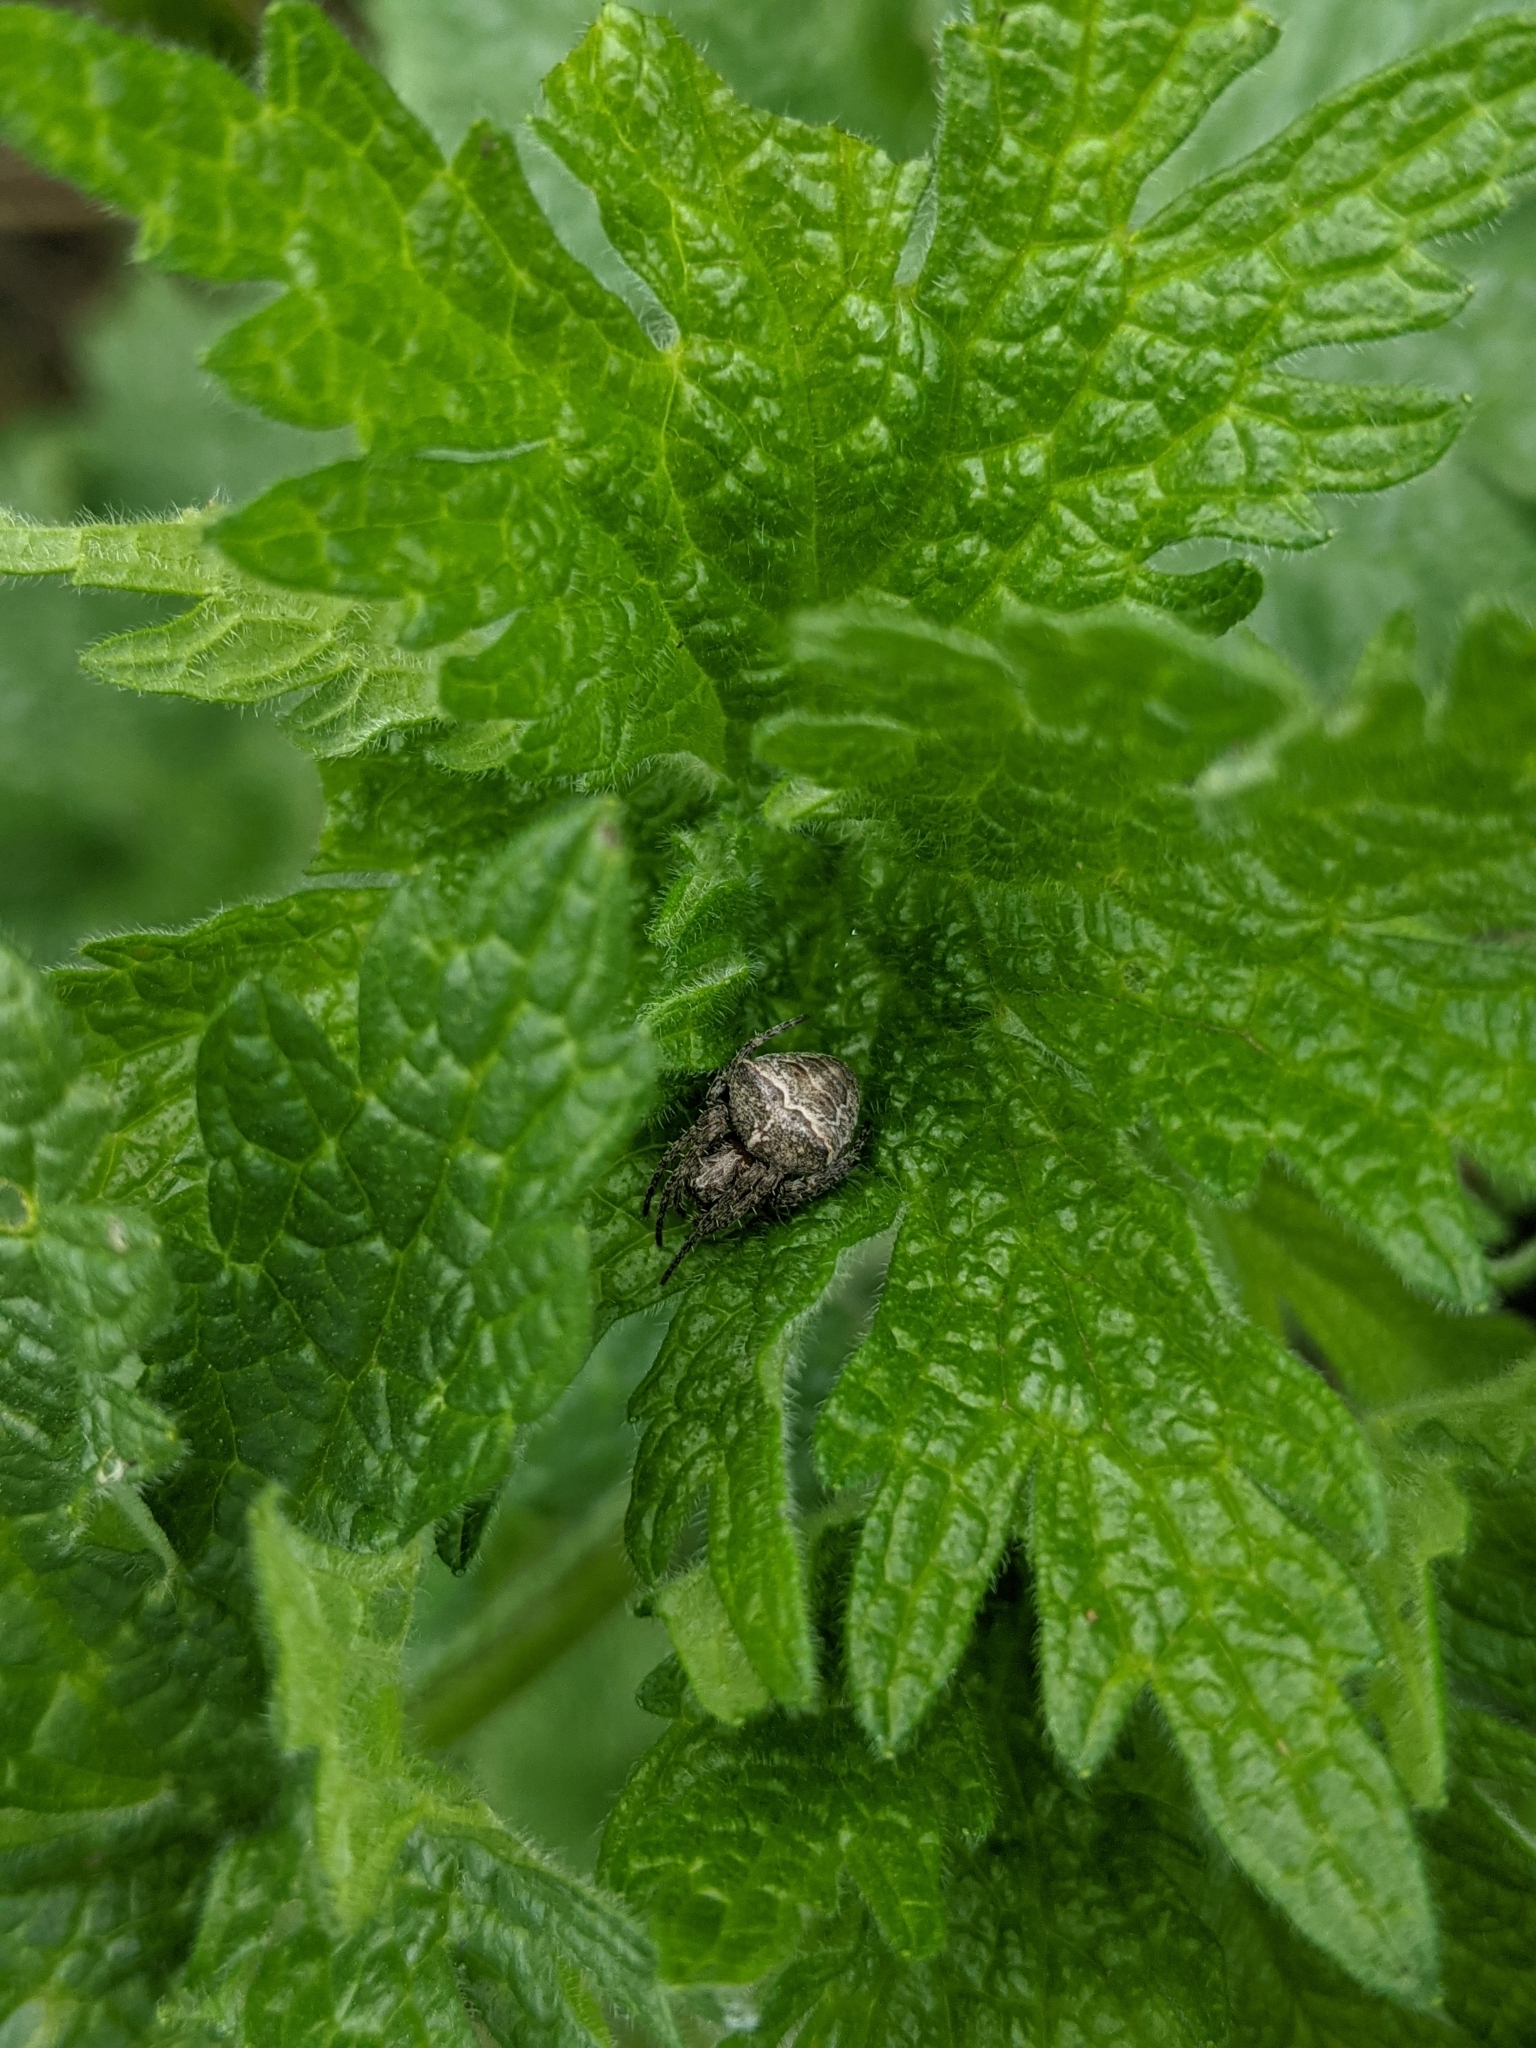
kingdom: Animalia
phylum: Arthropoda
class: Arachnida
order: Araneae
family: Araneidae
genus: Gibbaranea
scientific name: Gibbaranea bituberculata
